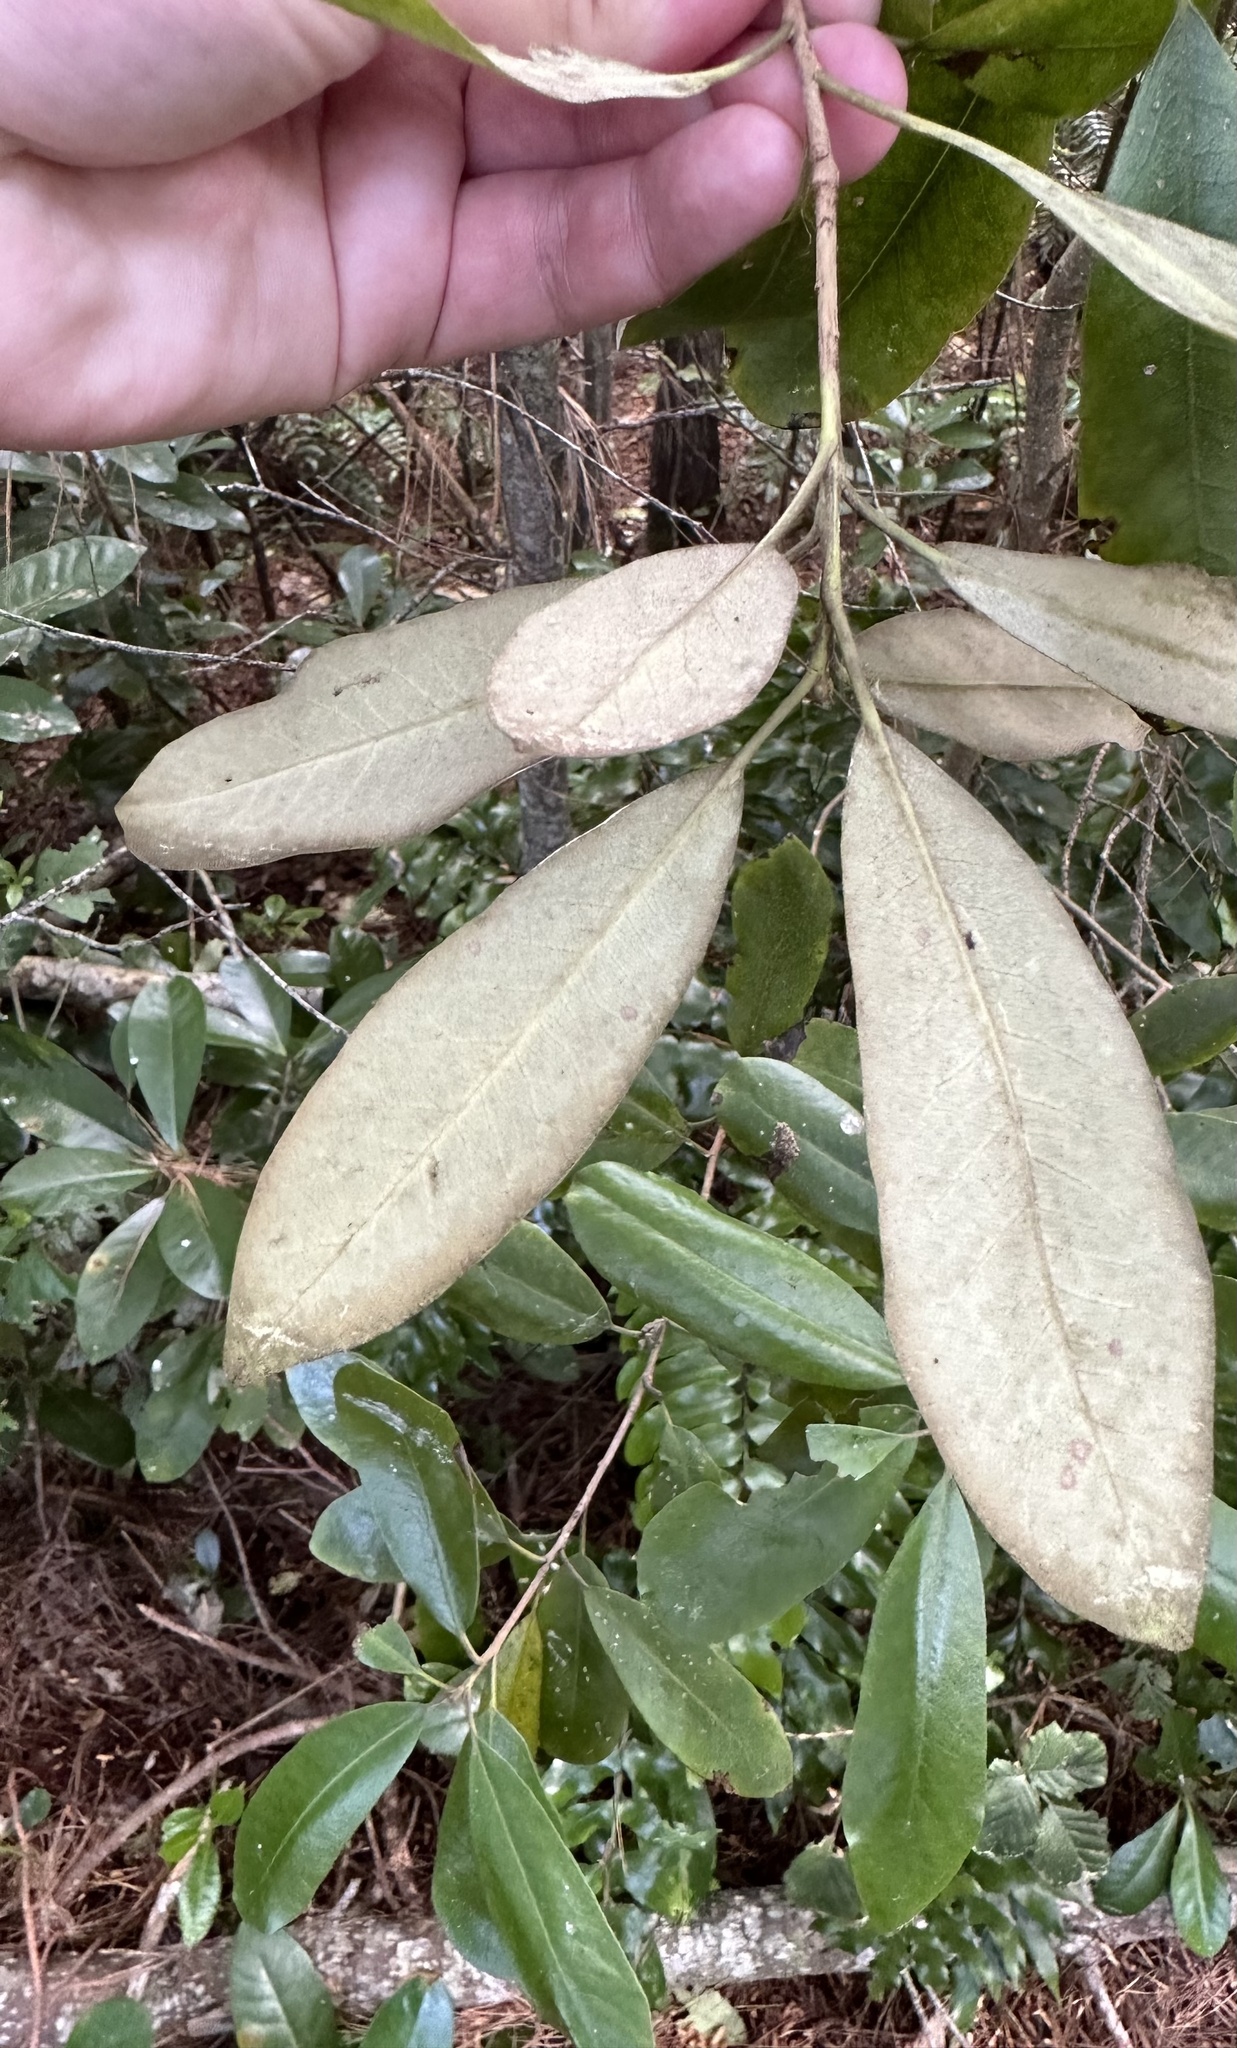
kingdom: Plantae
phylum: Tracheophyta
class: Magnoliopsida
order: Apiales
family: Pittosporaceae
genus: Pittosporum
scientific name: Pittosporum ralphii
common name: Ralph's desertwillow
